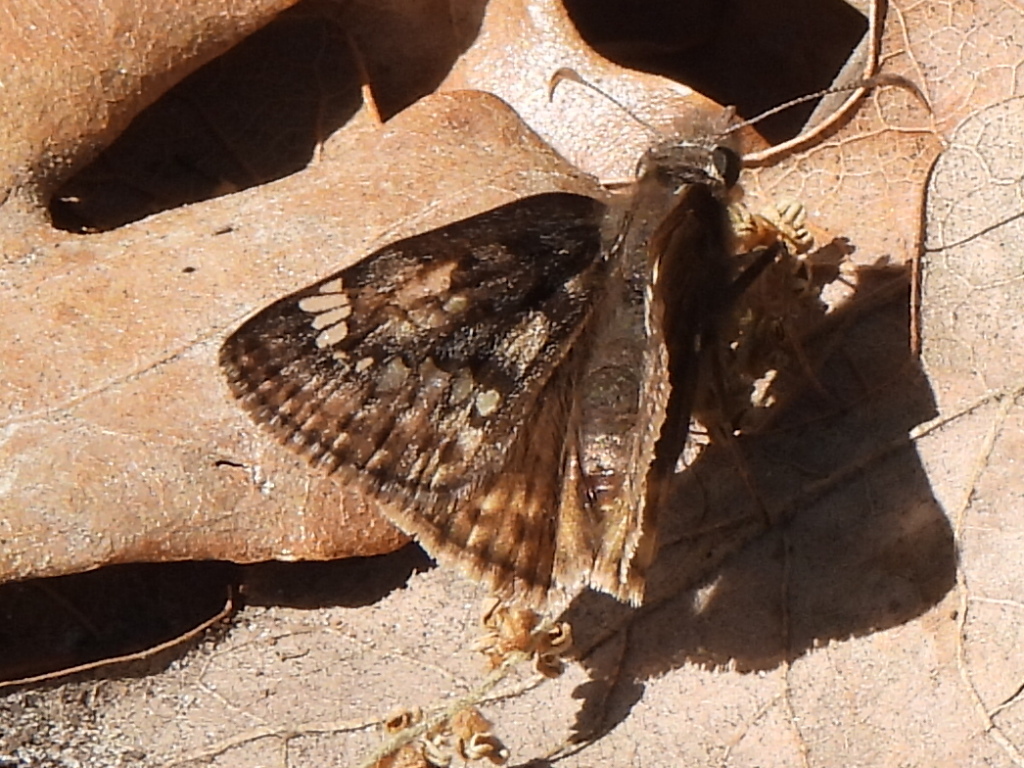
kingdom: Animalia
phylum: Arthropoda
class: Insecta
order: Lepidoptera
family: Hesperiidae
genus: Erynnis
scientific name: Erynnis juvenalis
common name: Juvenal's duskywing
